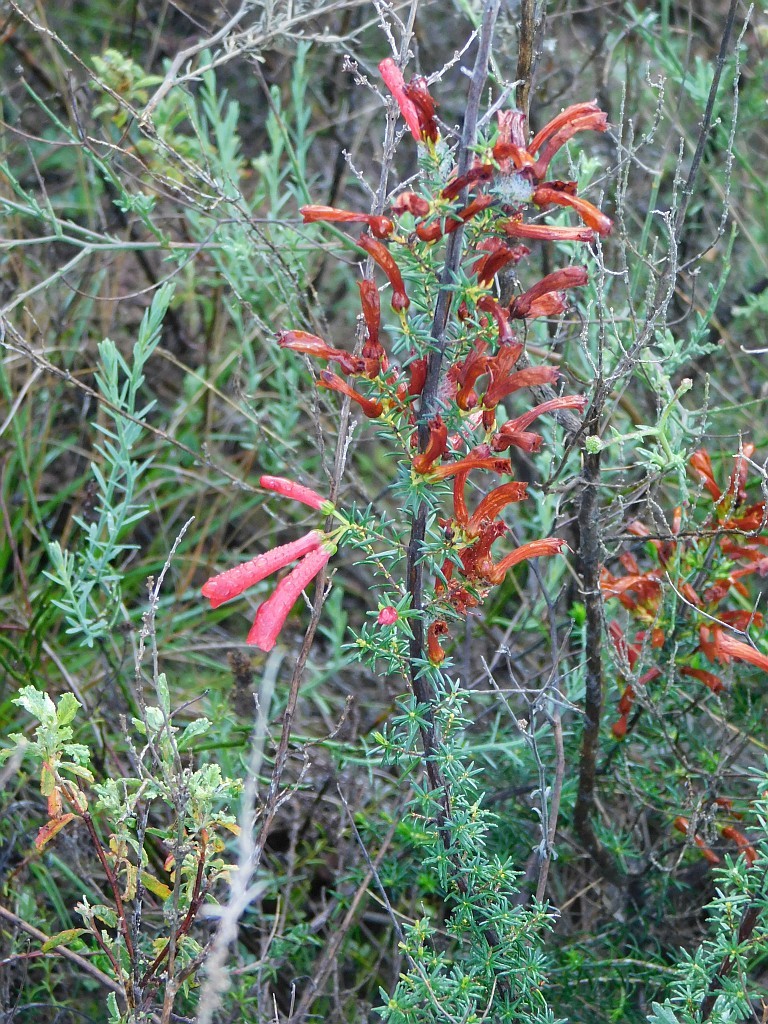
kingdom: Plantae
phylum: Tracheophyta
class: Magnoliopsida
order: Ericales
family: Ericaceae
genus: Erica
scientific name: Erica cruenta
